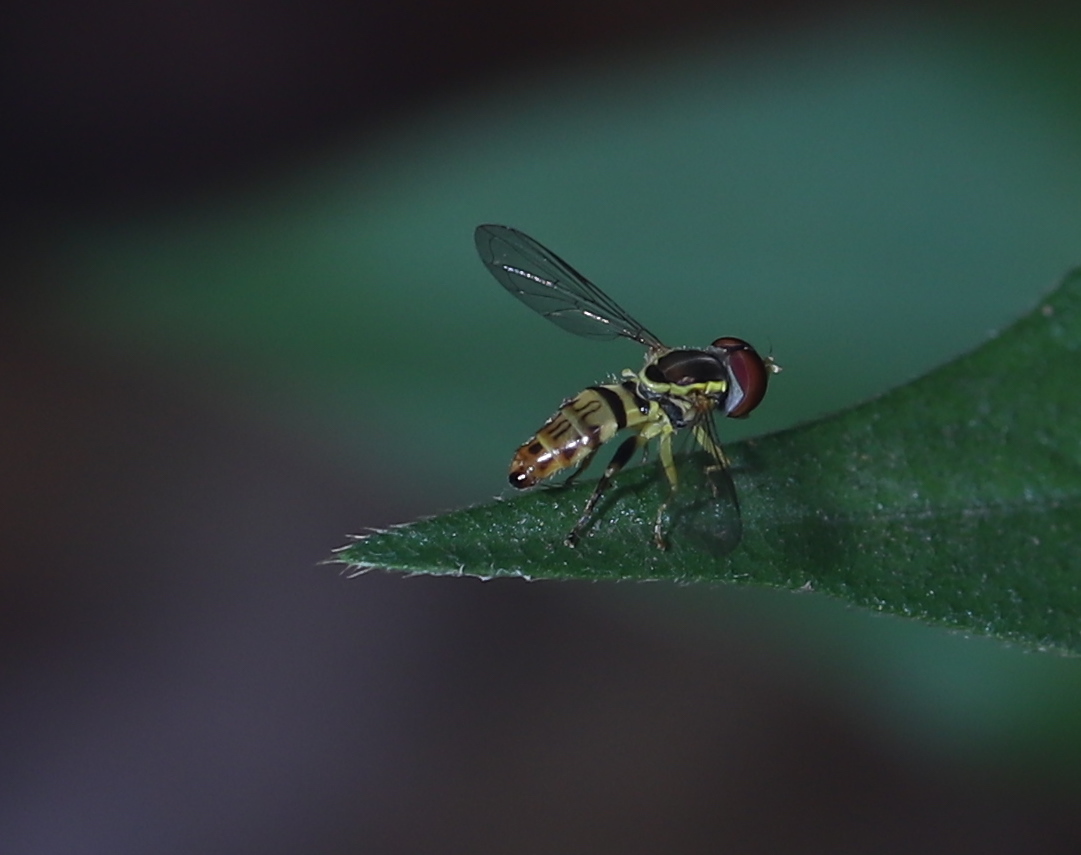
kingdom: Animalia
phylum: Arthropoda
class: Insecta
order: Diptera
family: Syrphidae
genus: Toxomerus
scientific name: Toxomerus geminatus
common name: Eastern calligrapher
